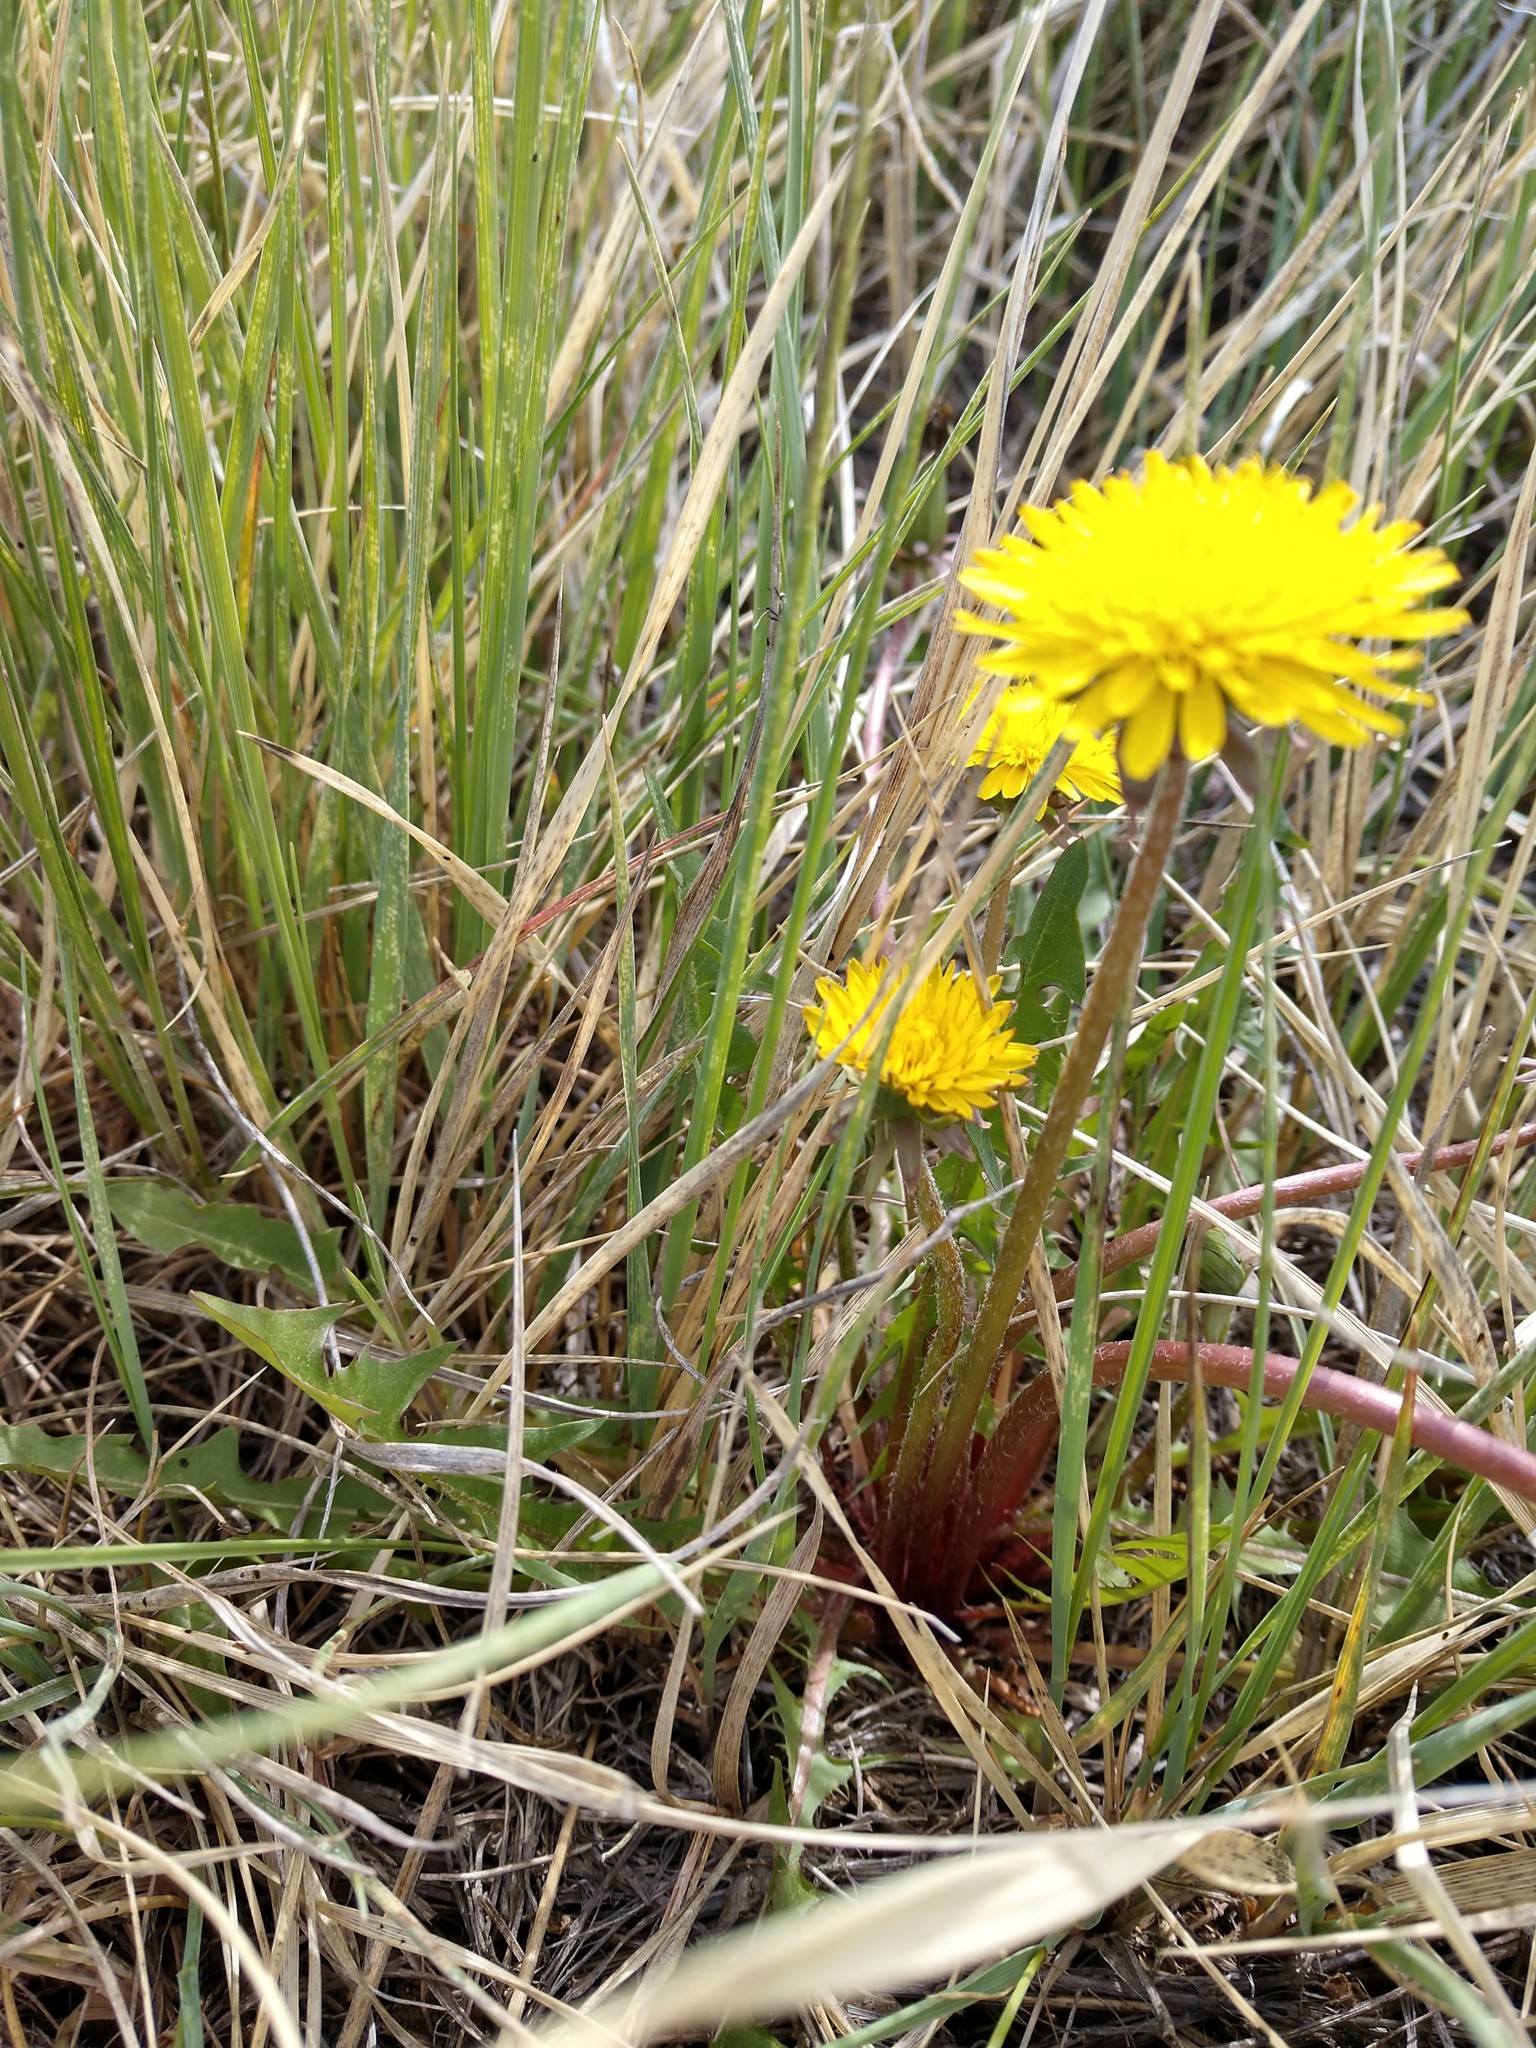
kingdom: Plantae
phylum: Tracheophyta
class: Magnoliopsida
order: Asterales
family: Asteraceae
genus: Taraxacum
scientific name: Taraxacum officinale
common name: Common dandelion
